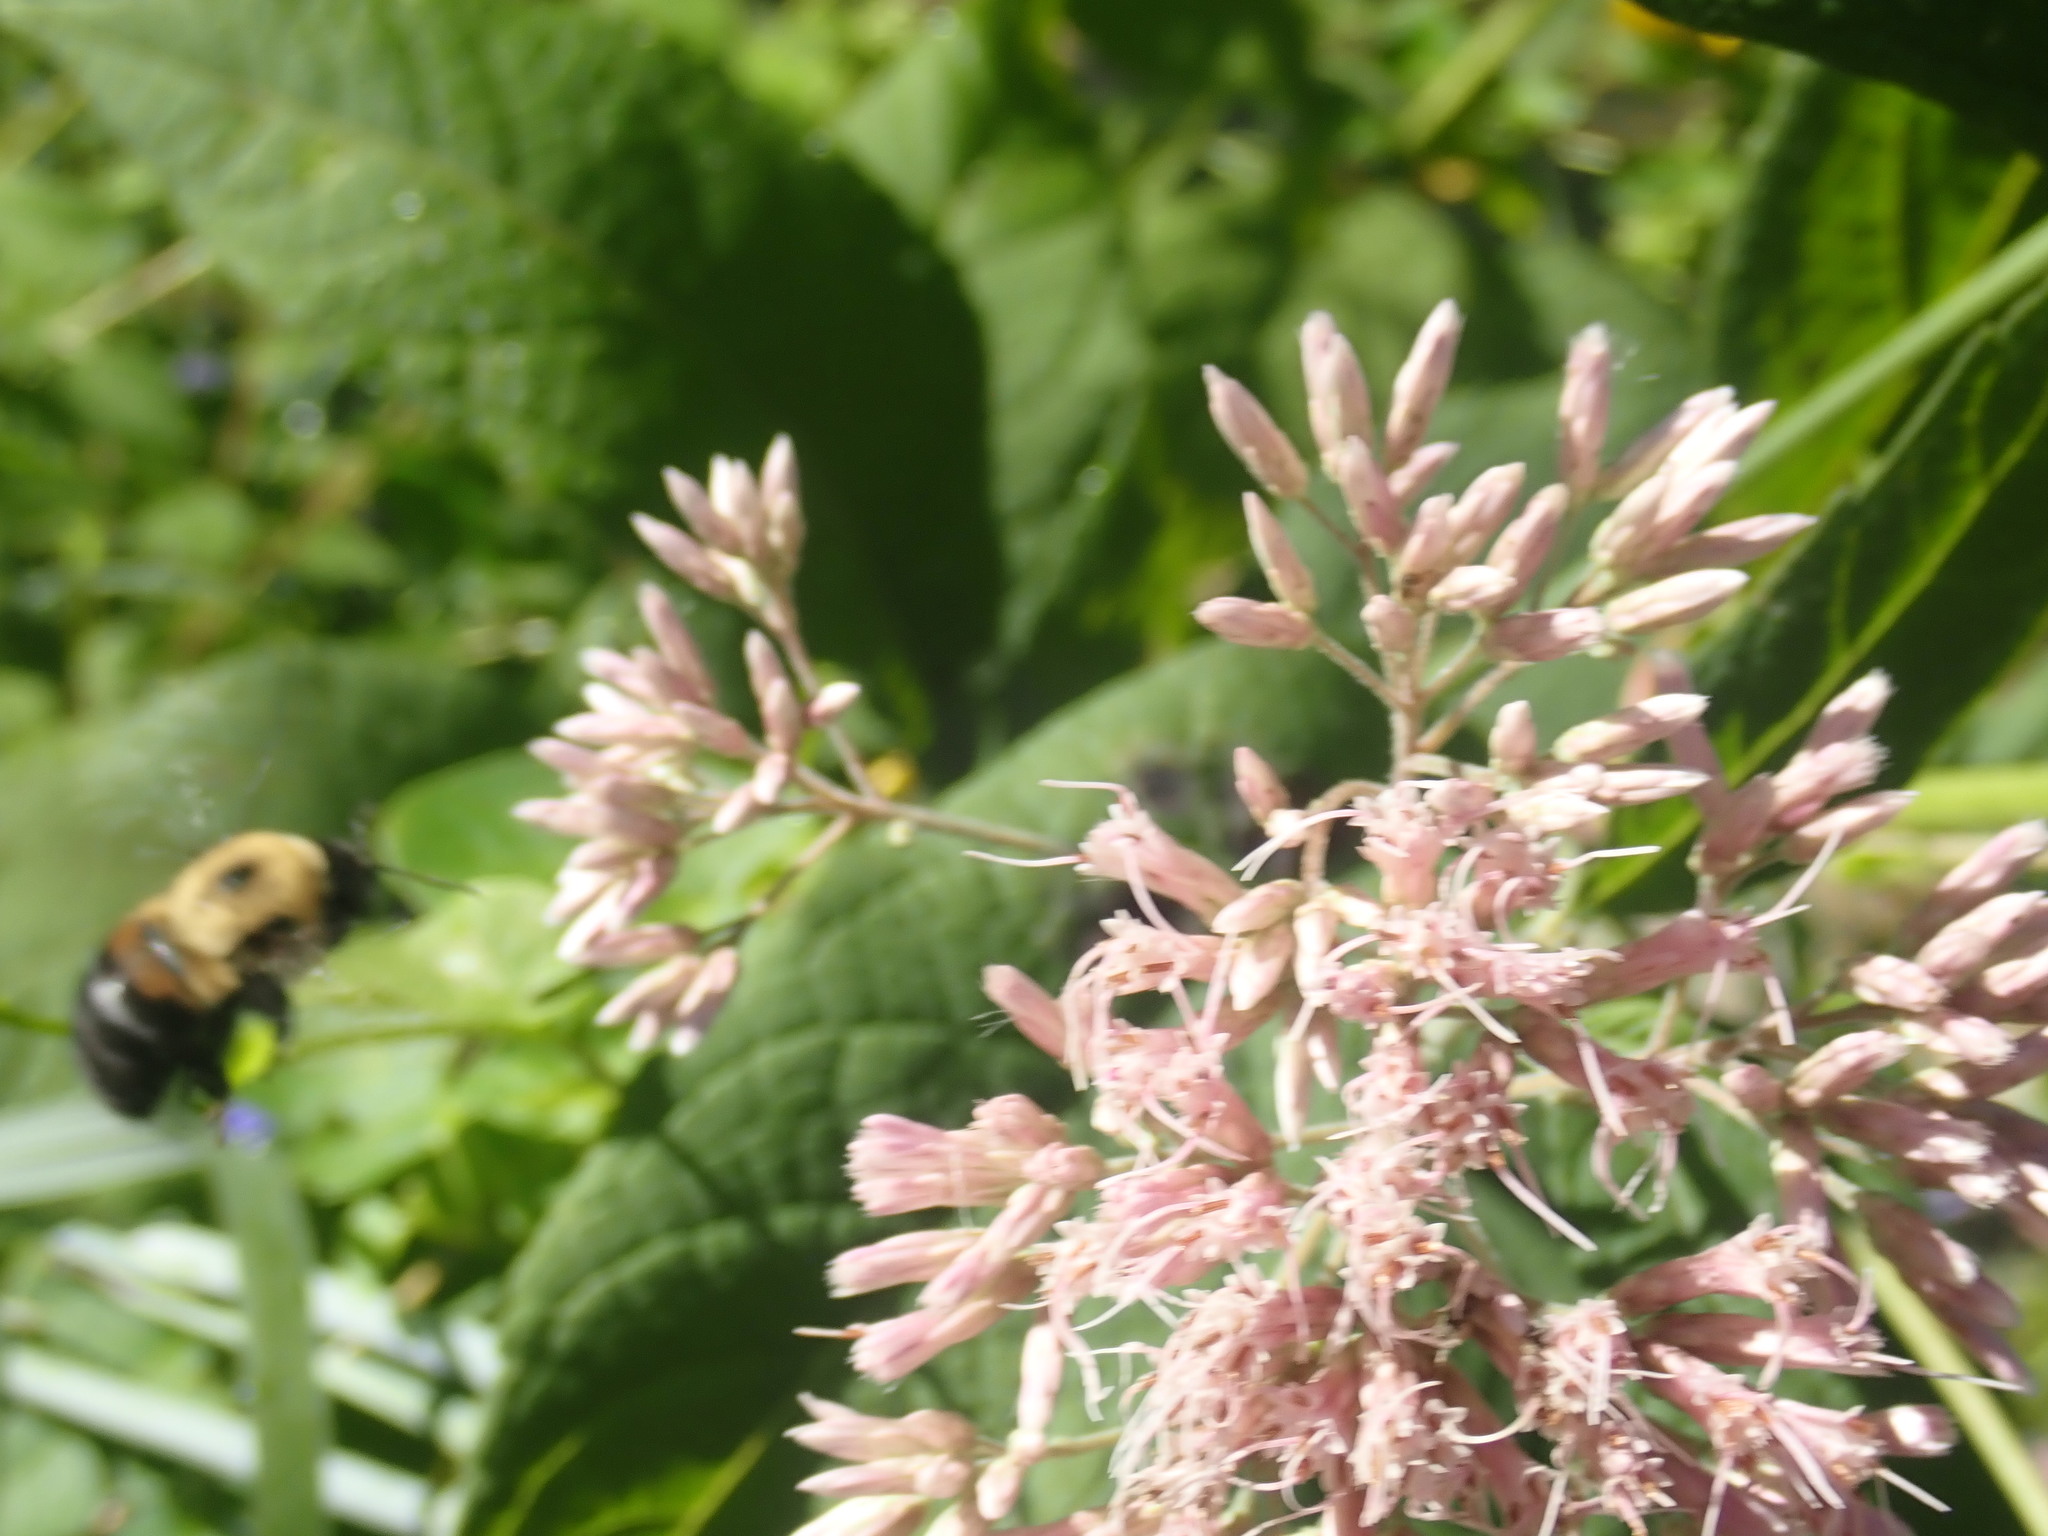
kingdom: Animalia
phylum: Arthropoda
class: Insecta
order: Hymenoptera
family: Apidae
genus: Bombus
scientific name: Bombus griseocollis
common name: Brown-belted bumble bee
